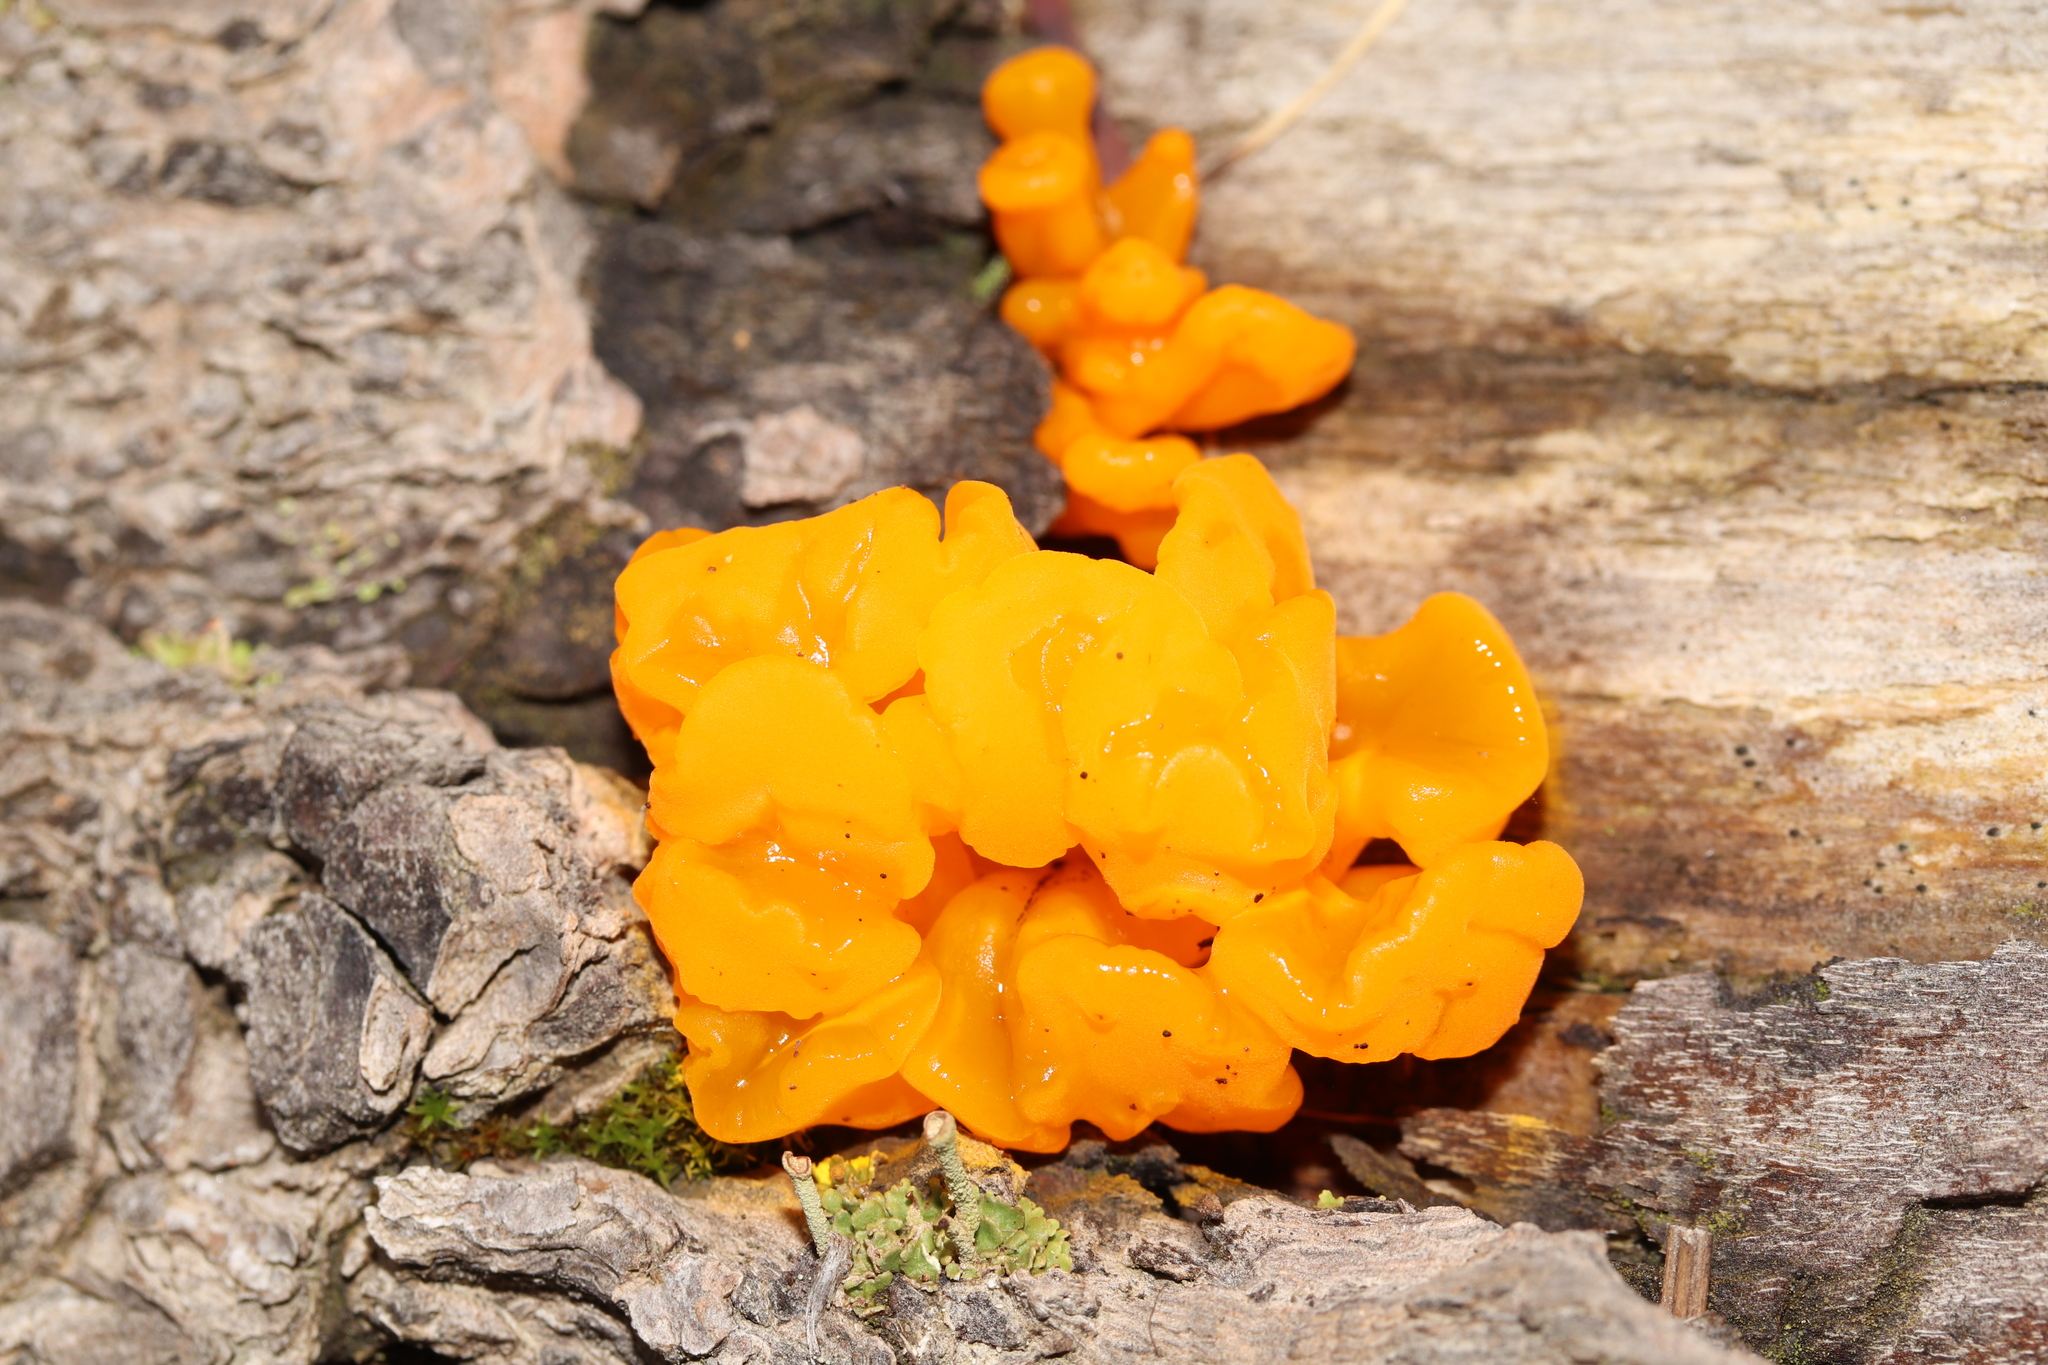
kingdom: Fungi
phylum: Basidiomycota
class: Dacrymycetes
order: Dacrymycetales
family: Dacrymycetaceae
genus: Dacrymyces
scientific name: Dacrymyces chrysospermus
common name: Orange jelly spot
